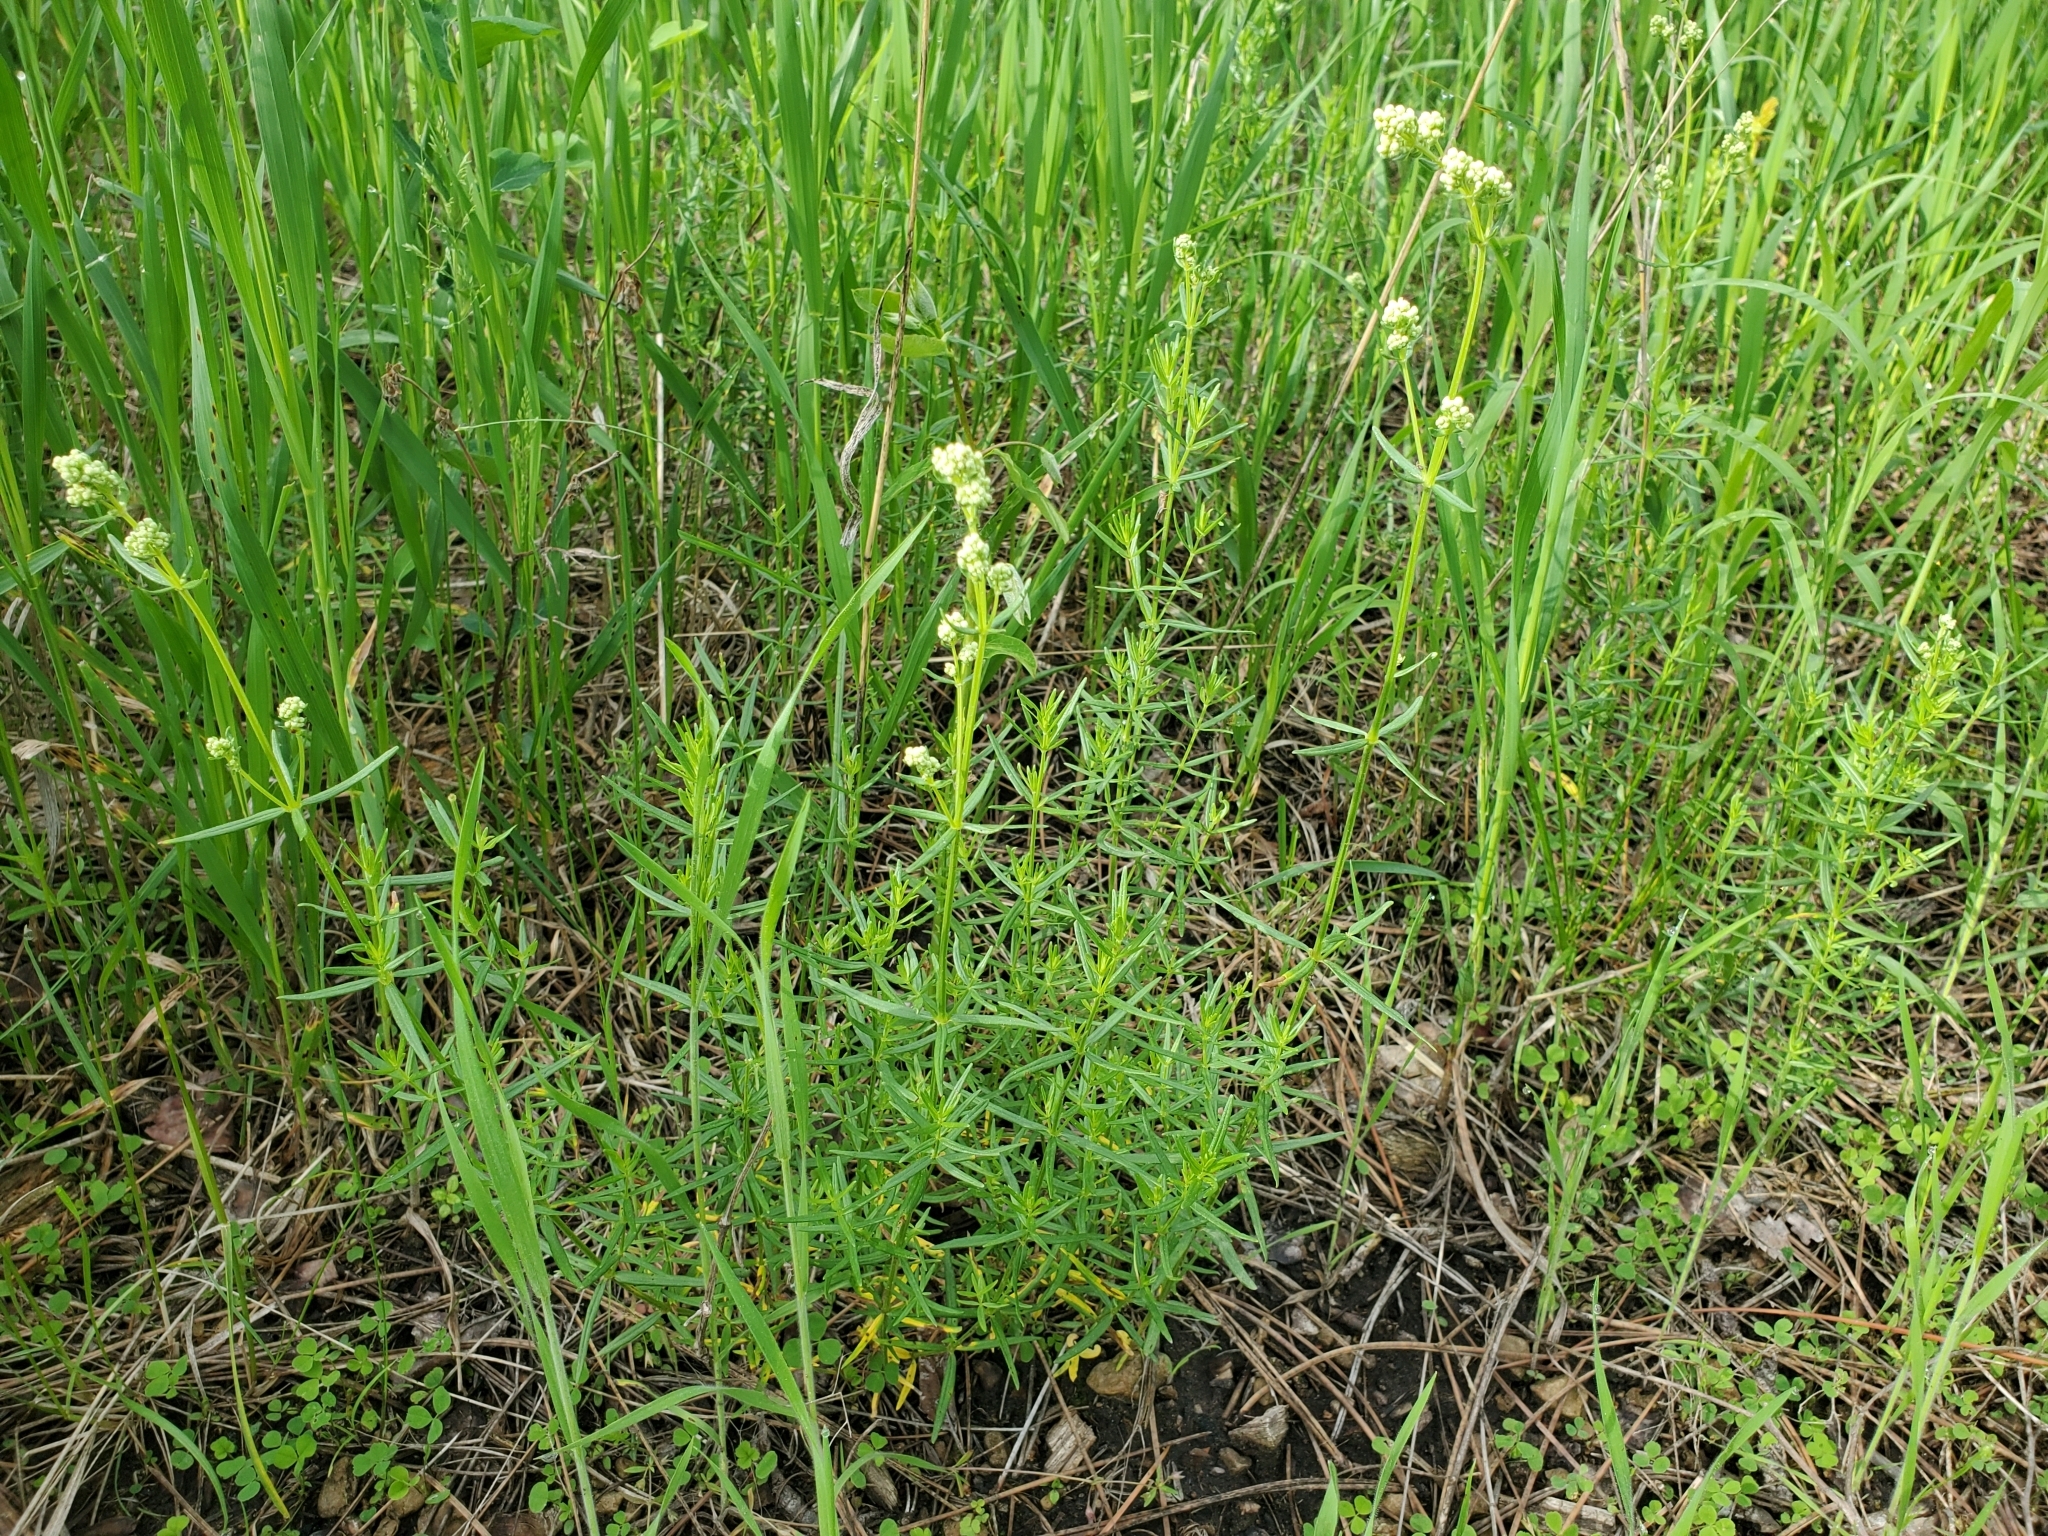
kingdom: Plantae
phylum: Tracheophyta
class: Magnoliopsida
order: Gentianales
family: Rubiaceae
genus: Galium
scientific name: Galium boreale
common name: Northern bedstraw
